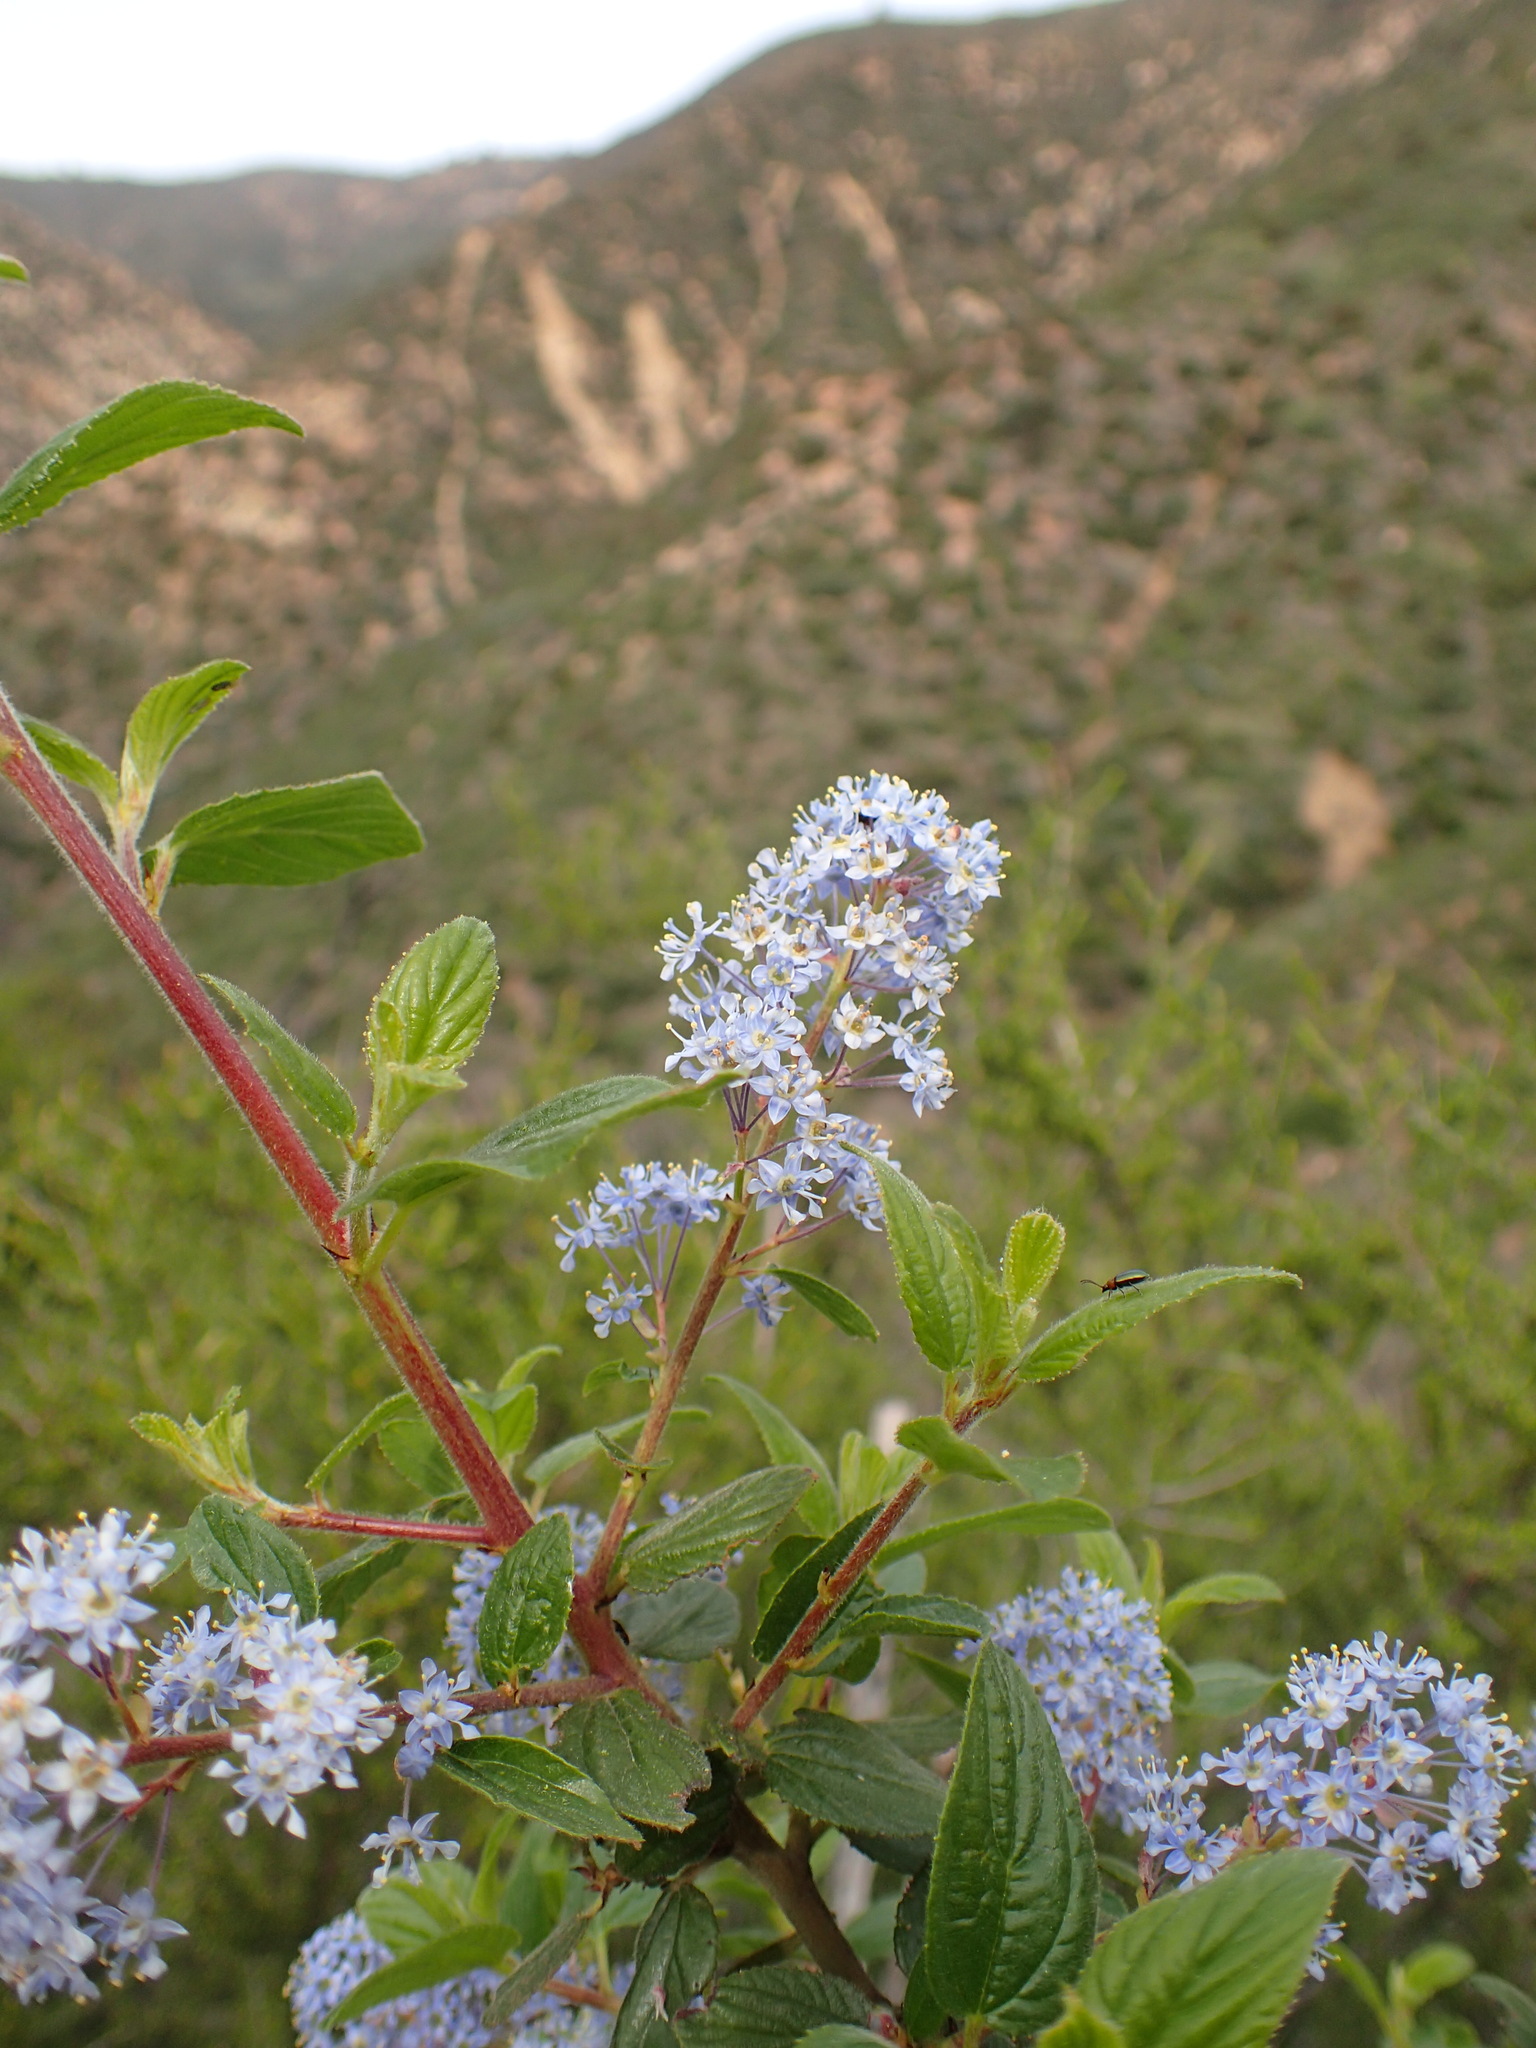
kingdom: Plantae
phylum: Tracheophyta
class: Magnoliopsida
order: Rosales
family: Rhamnaceae
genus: Ceanothus
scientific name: Ceanothus oliganthus
